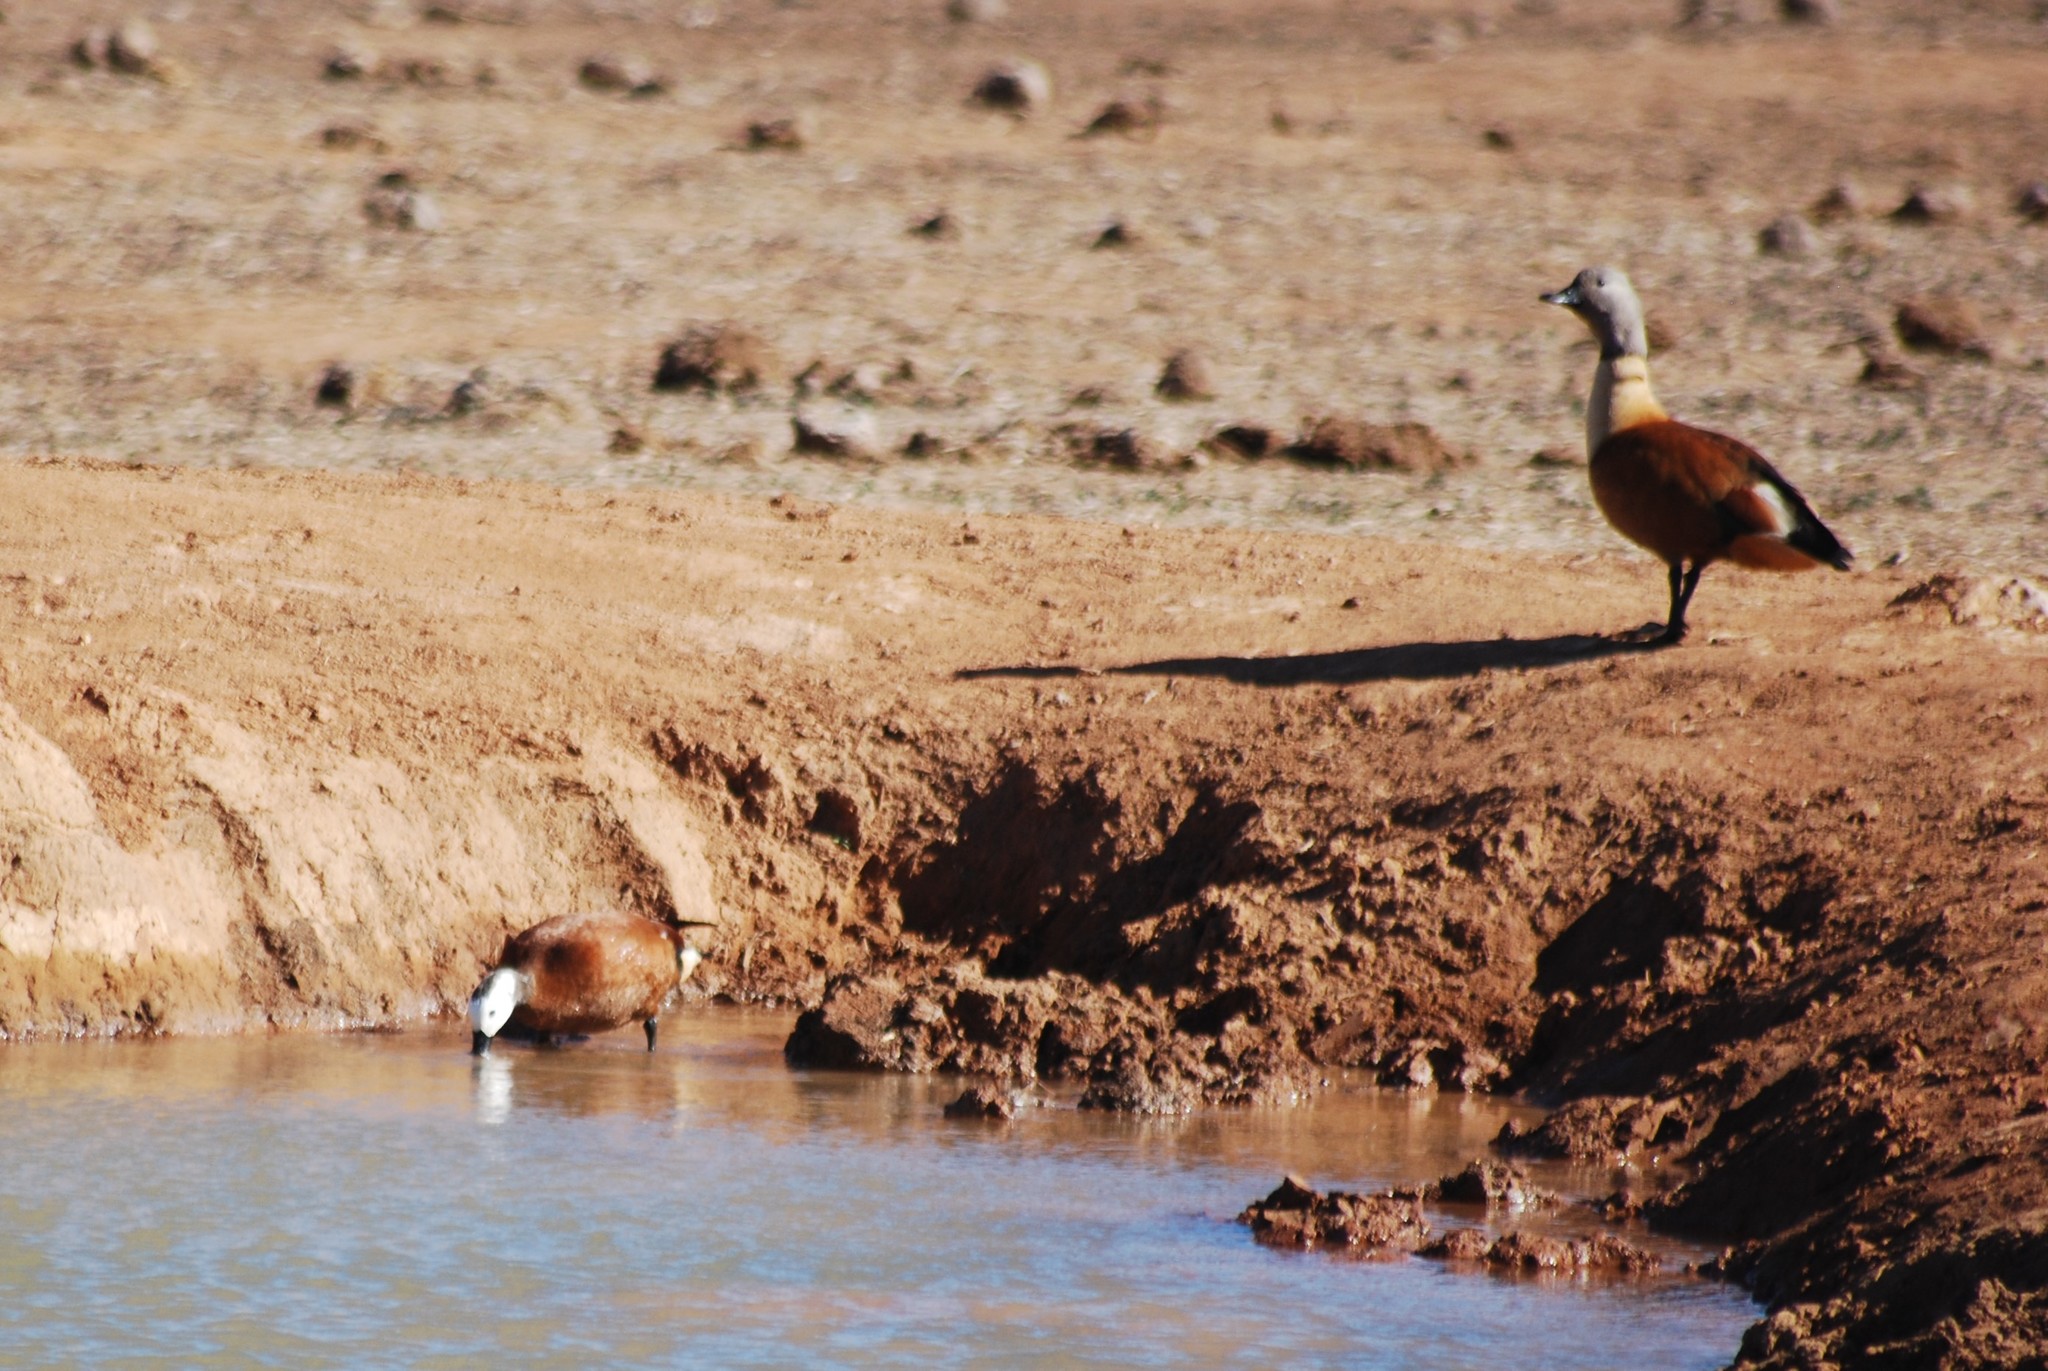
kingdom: Animalia
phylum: Chordata
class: Aves
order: Anseriformes
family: Anatidae
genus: Tadorna
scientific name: Tadorna cana
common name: South african shelduck
